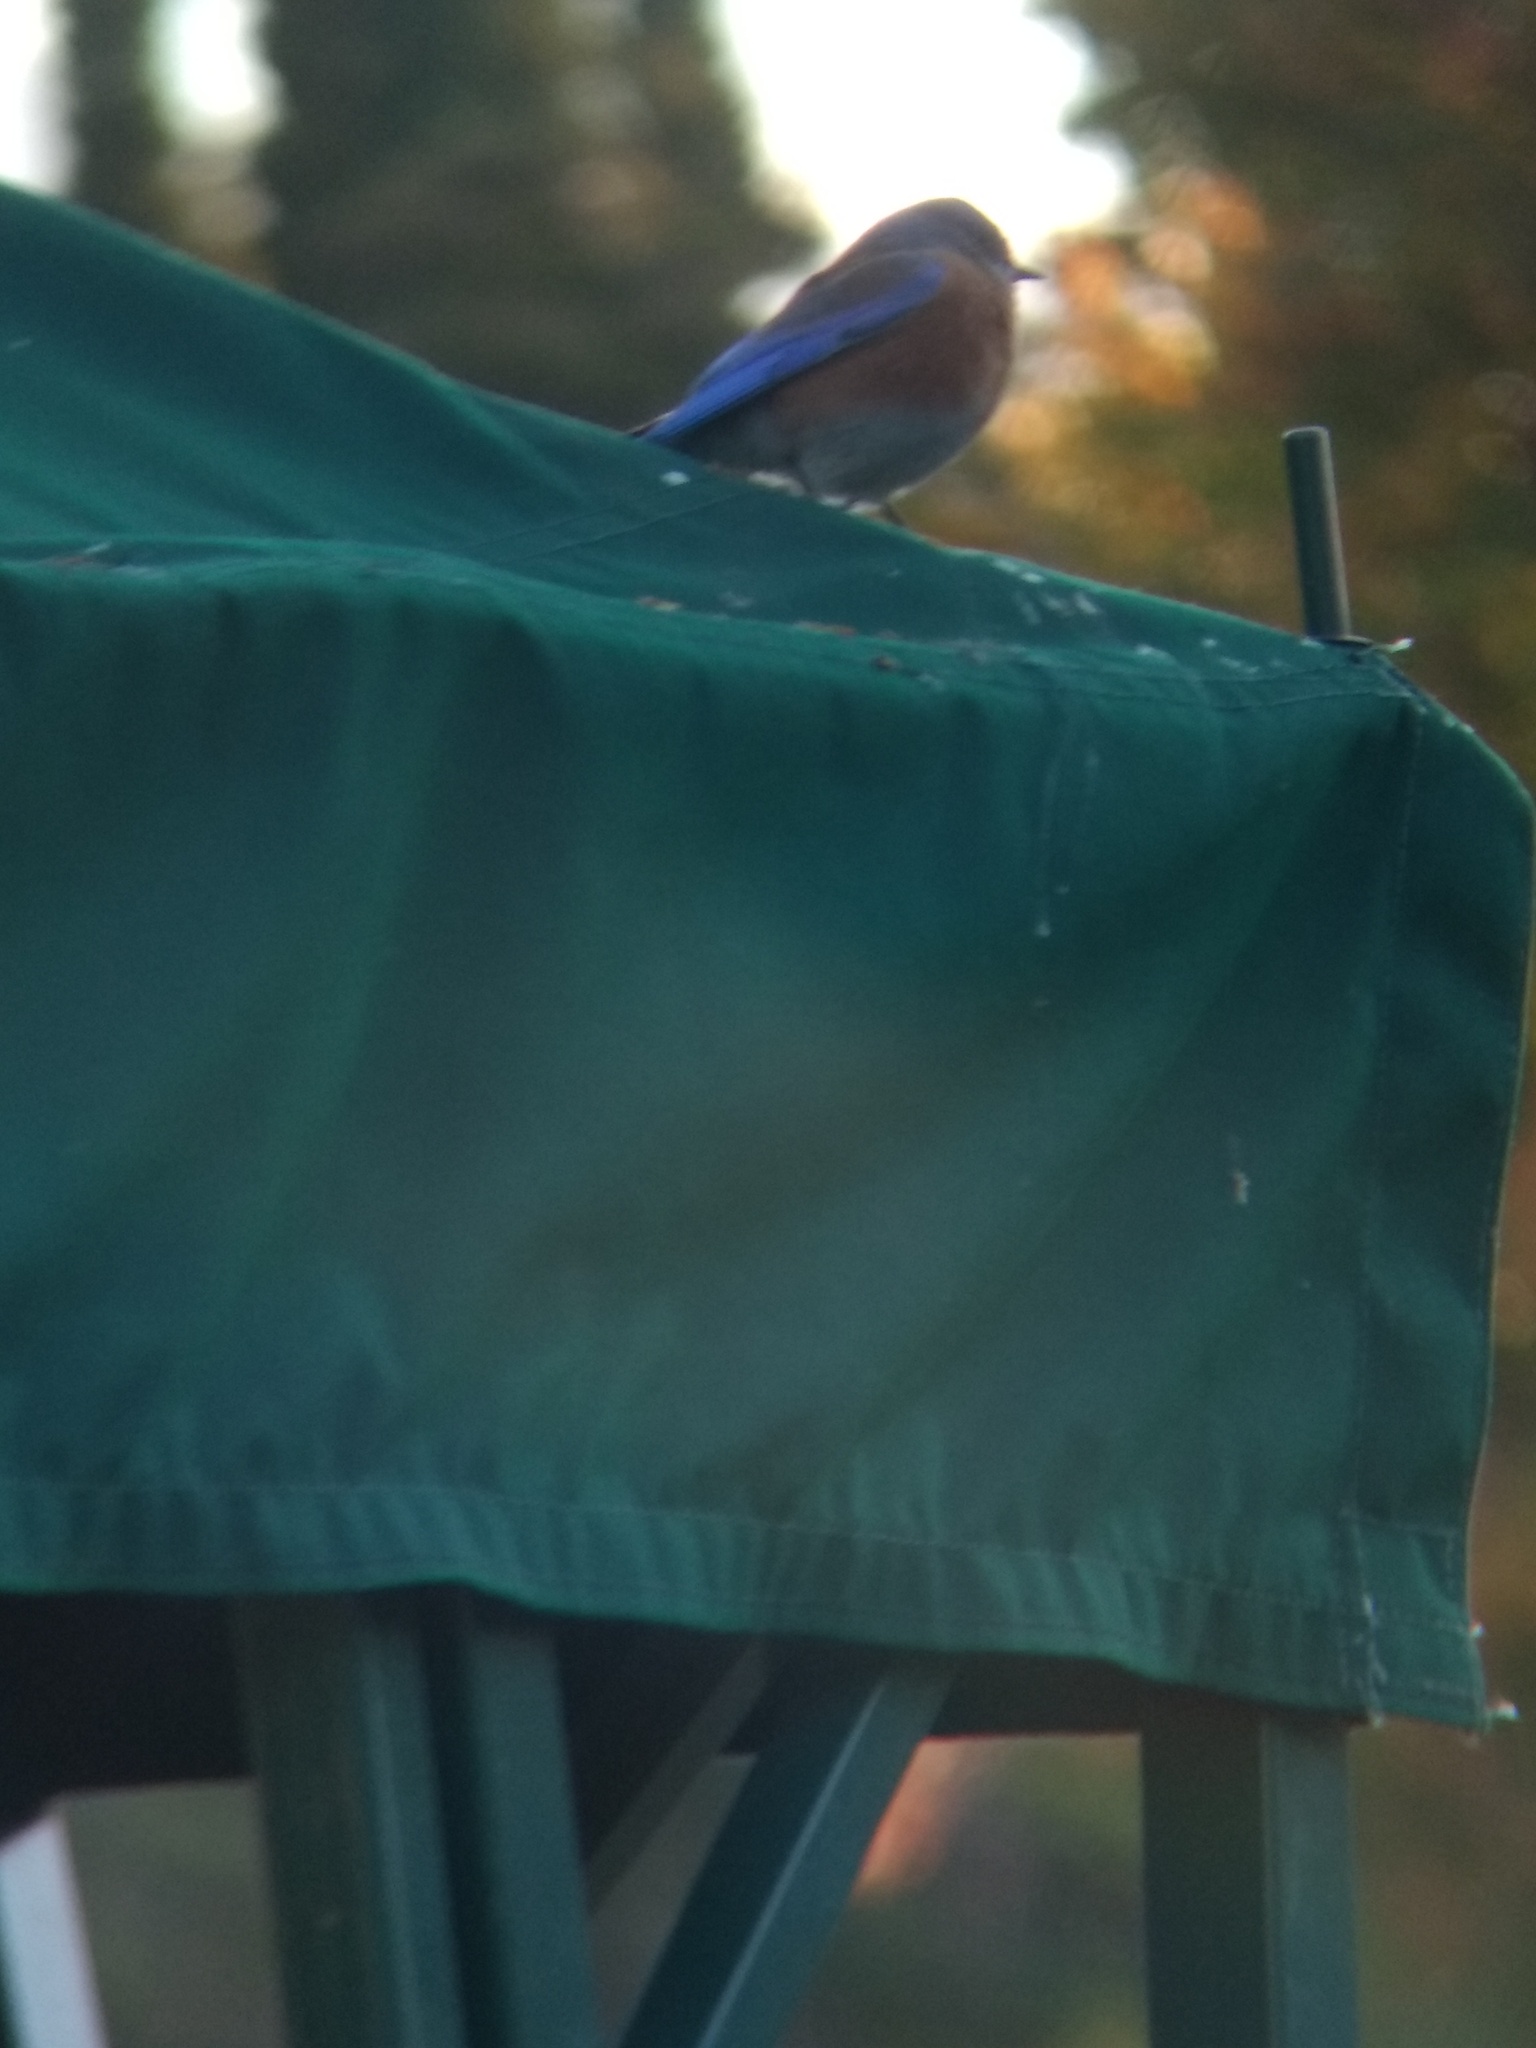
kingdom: Animalia
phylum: Chordata
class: Aves
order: Passeriformes
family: Turdidae
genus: Sialia
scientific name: Sialia mexicana
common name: Western bluebird
